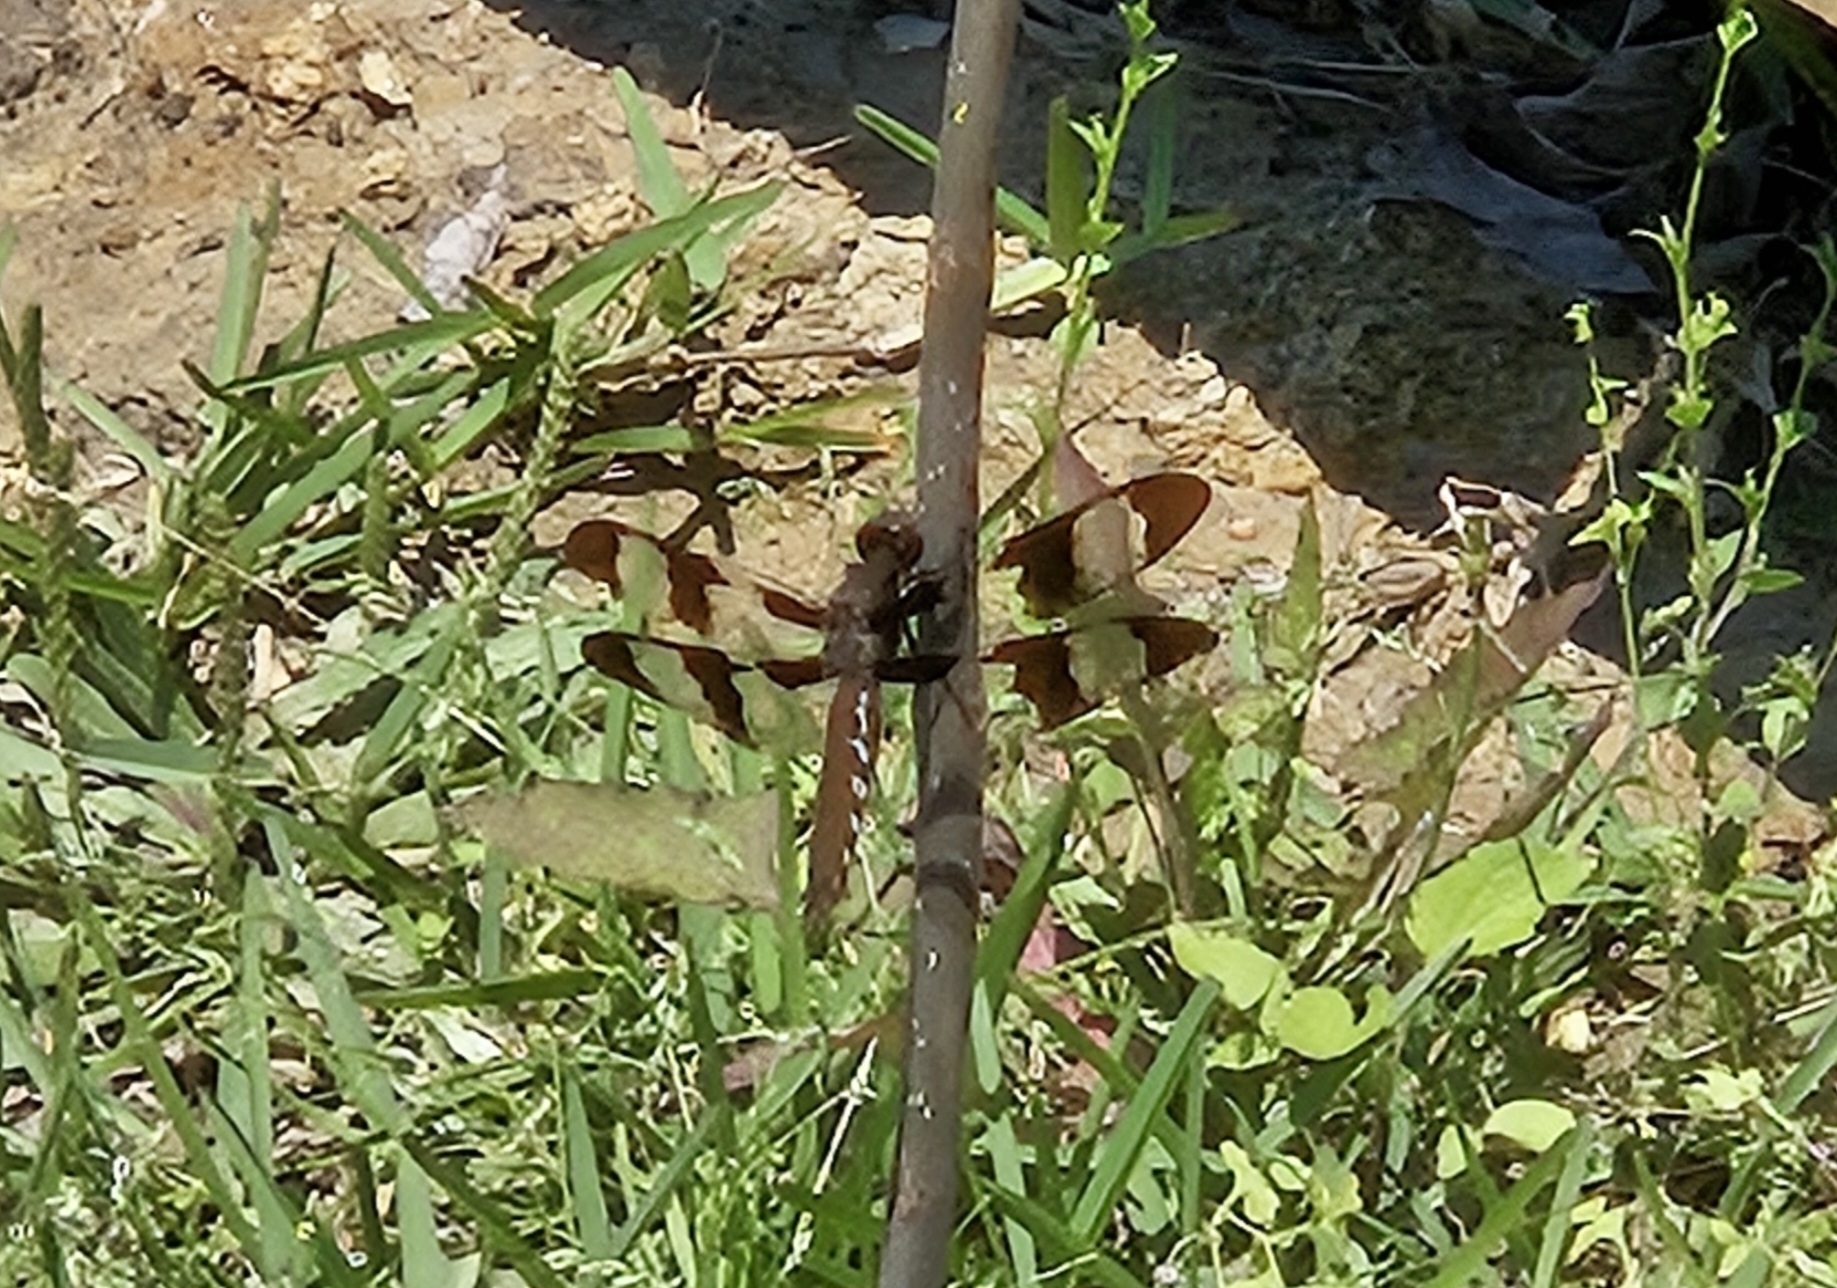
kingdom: Animalia
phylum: Arthropoda
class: Insecta
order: Odonata
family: Libellulidae
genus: Plathemis
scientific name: Plathemis lydia
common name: Common whitetail
